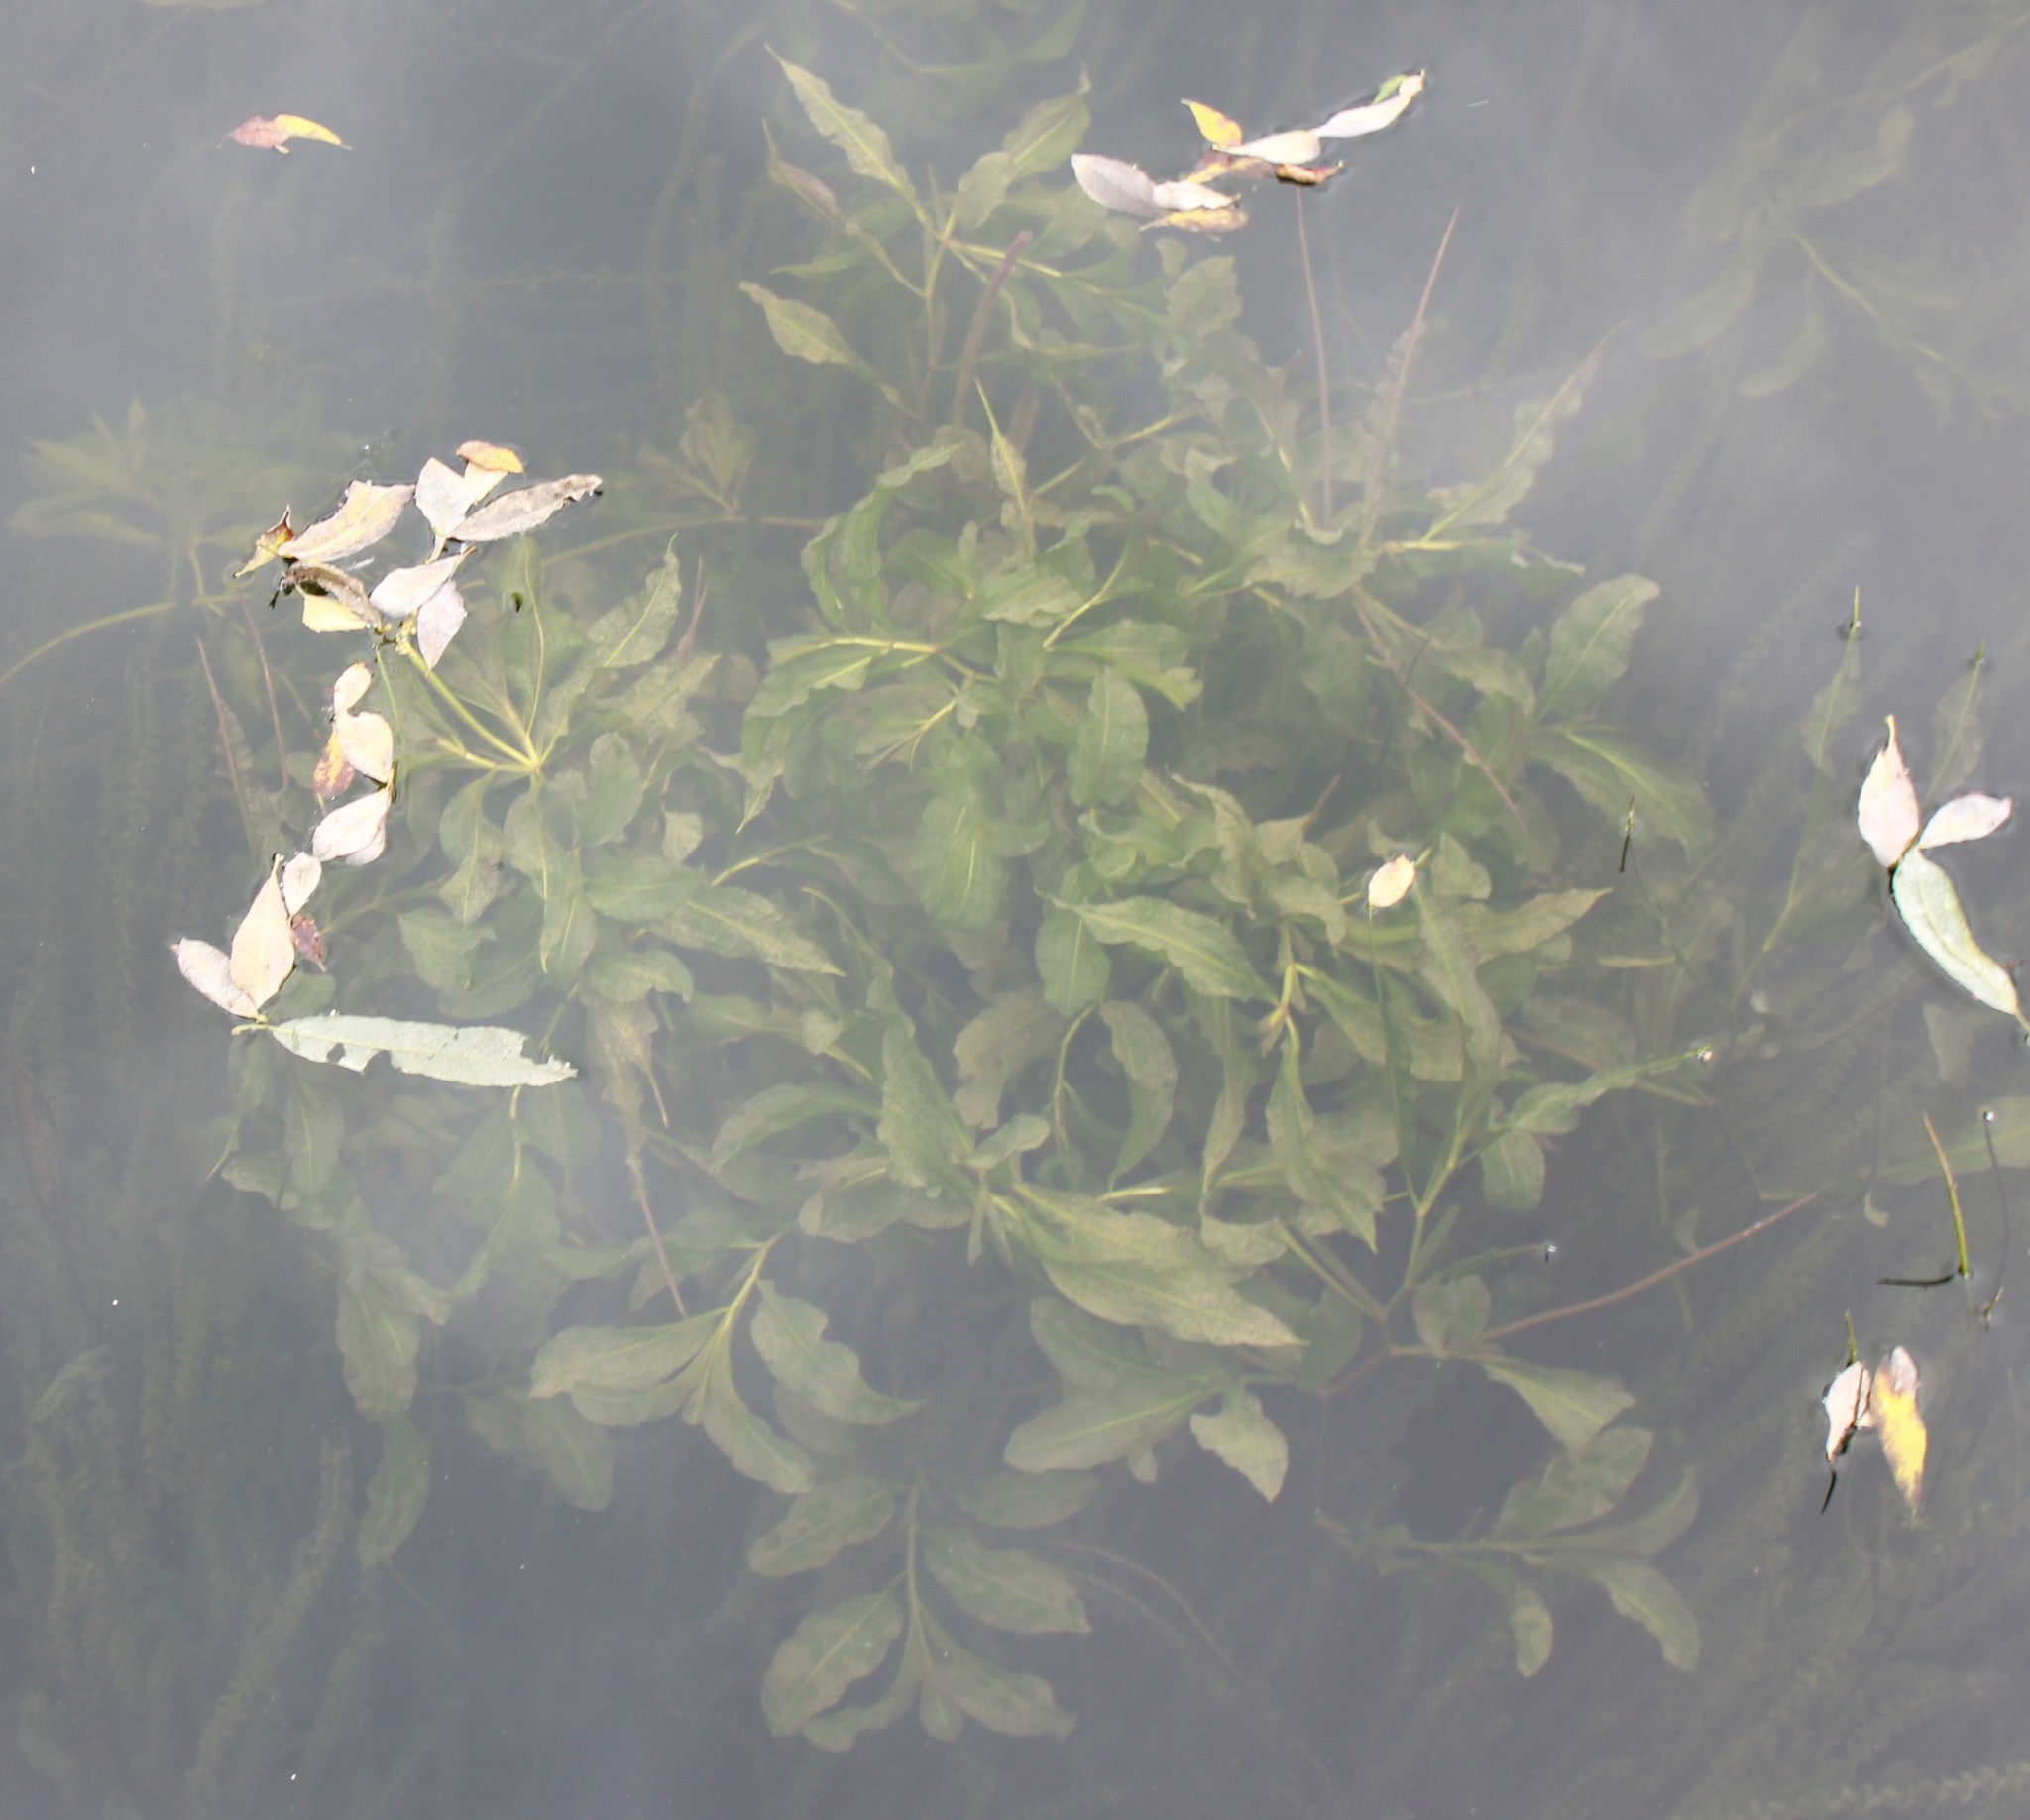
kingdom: Plantae
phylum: Tracheophyta
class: Liliopsida
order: Alismatales
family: Potamogetonaceae
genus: Potamogeton
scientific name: Potamogeton lucens
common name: Shining pondweed
